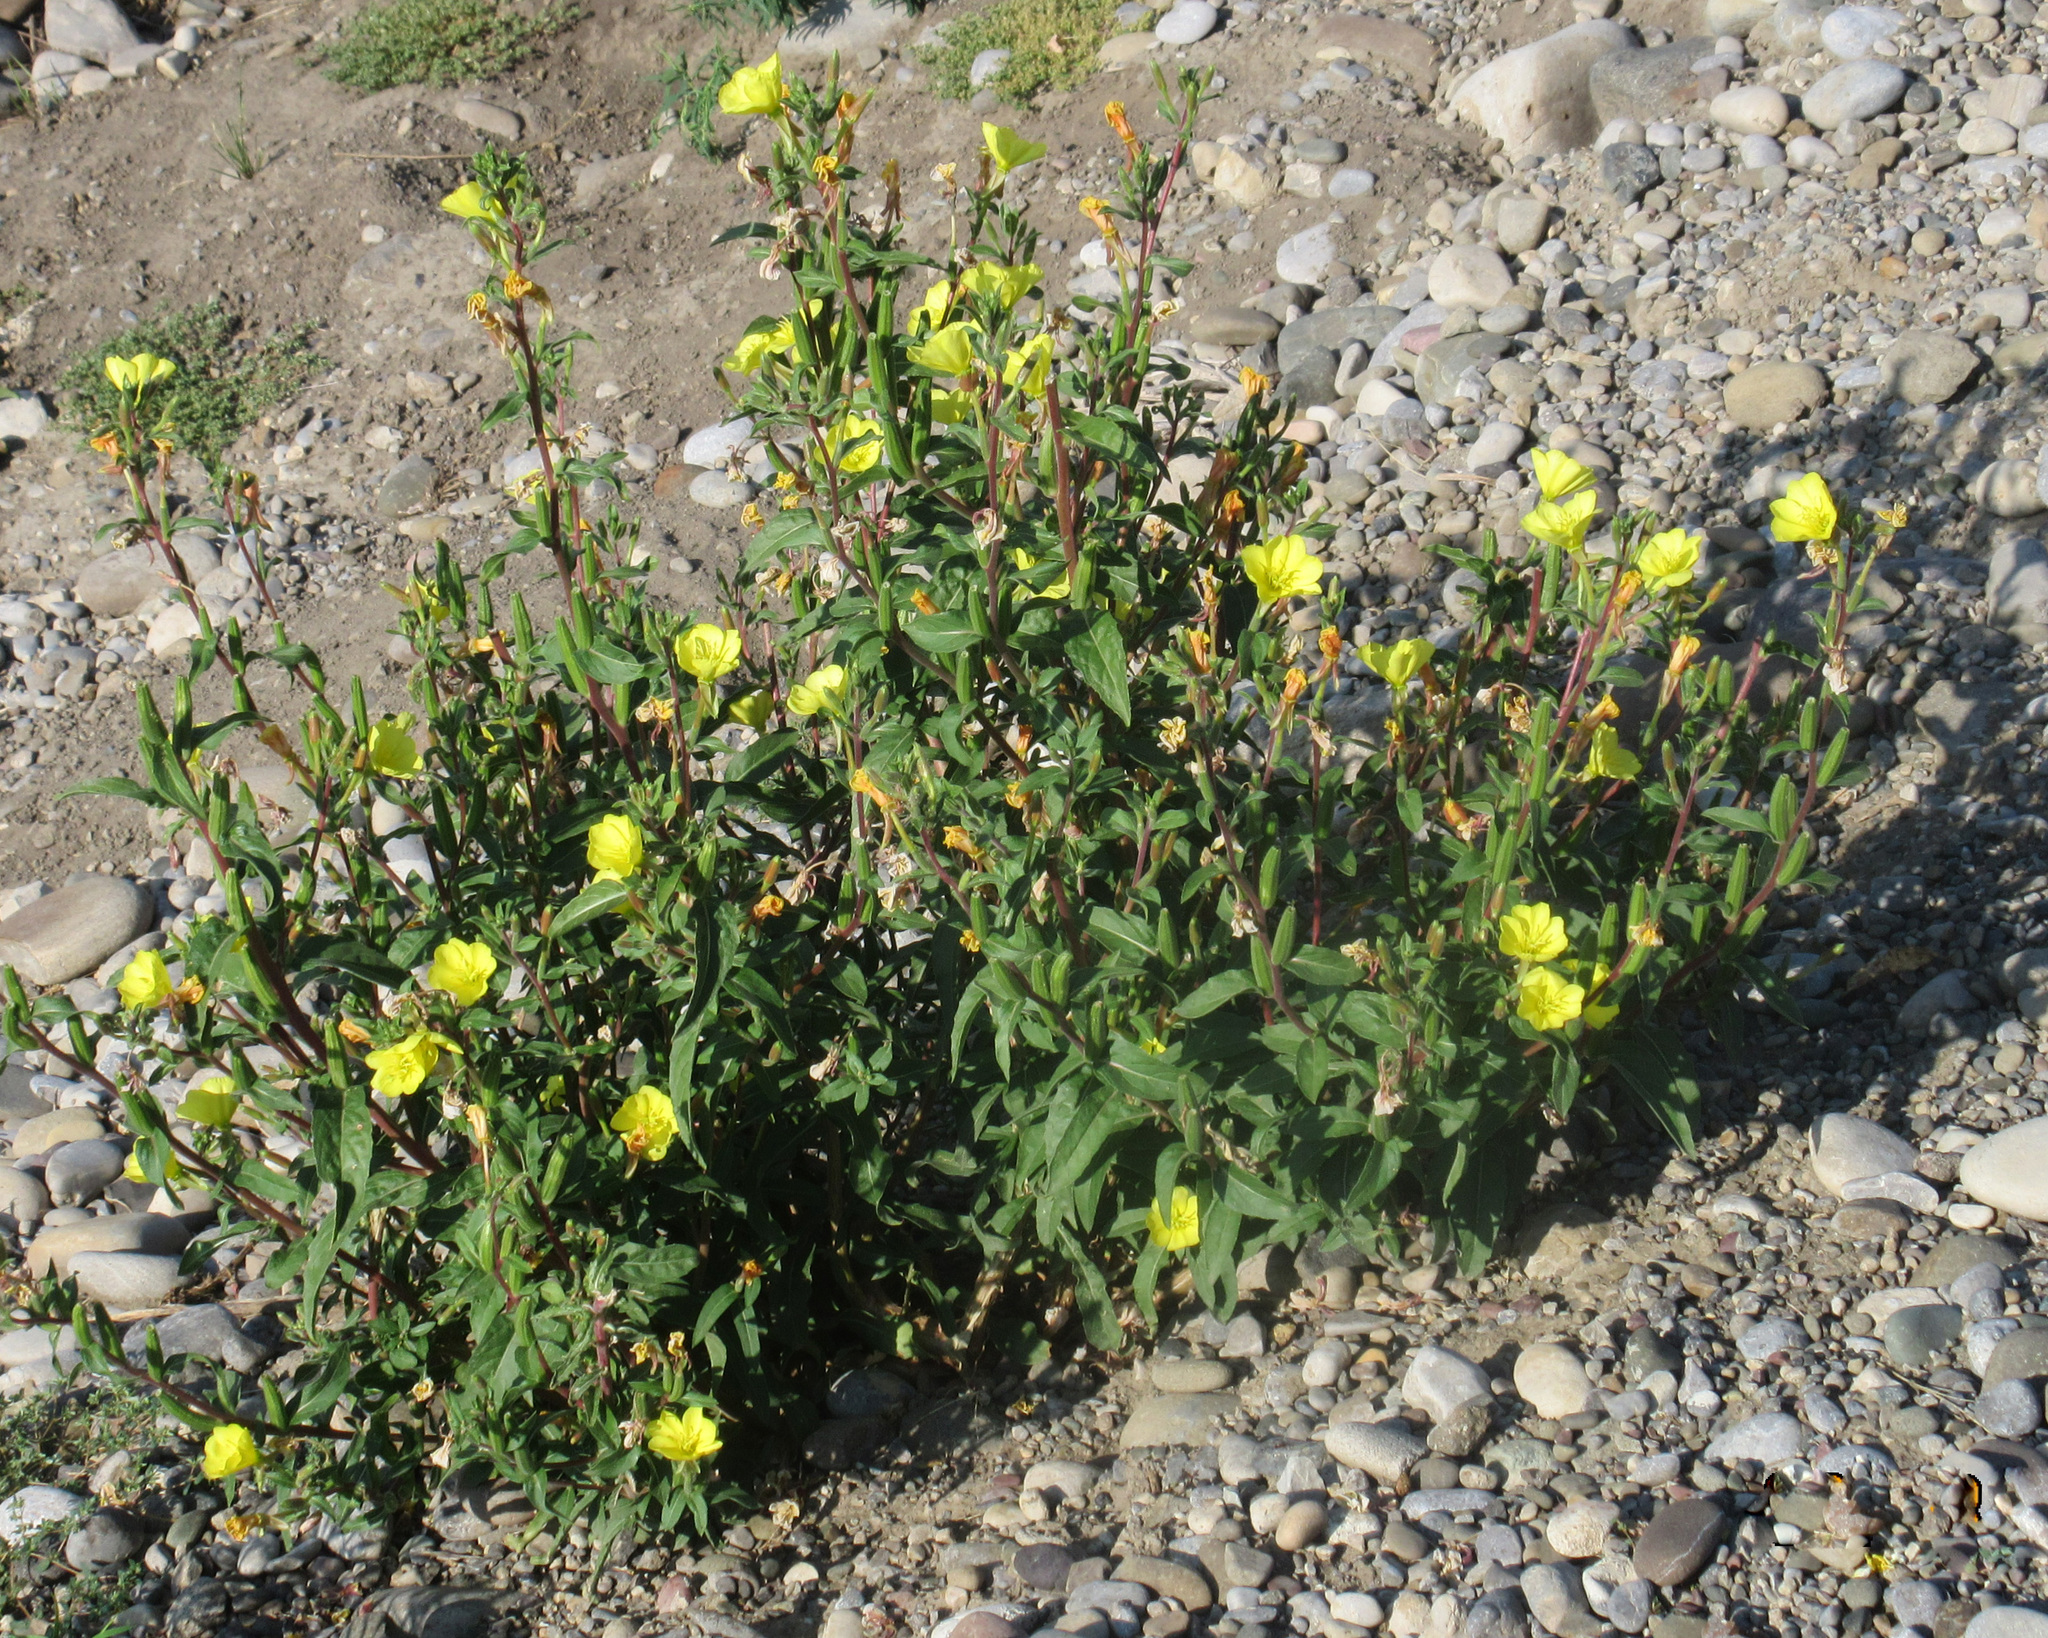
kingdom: Plantae
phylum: Tracheophyta
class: Magnoliopsida
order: Myrtales
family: Onagraceae
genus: Oenothera
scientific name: Oenothera biennis
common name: Common evening-primrose
